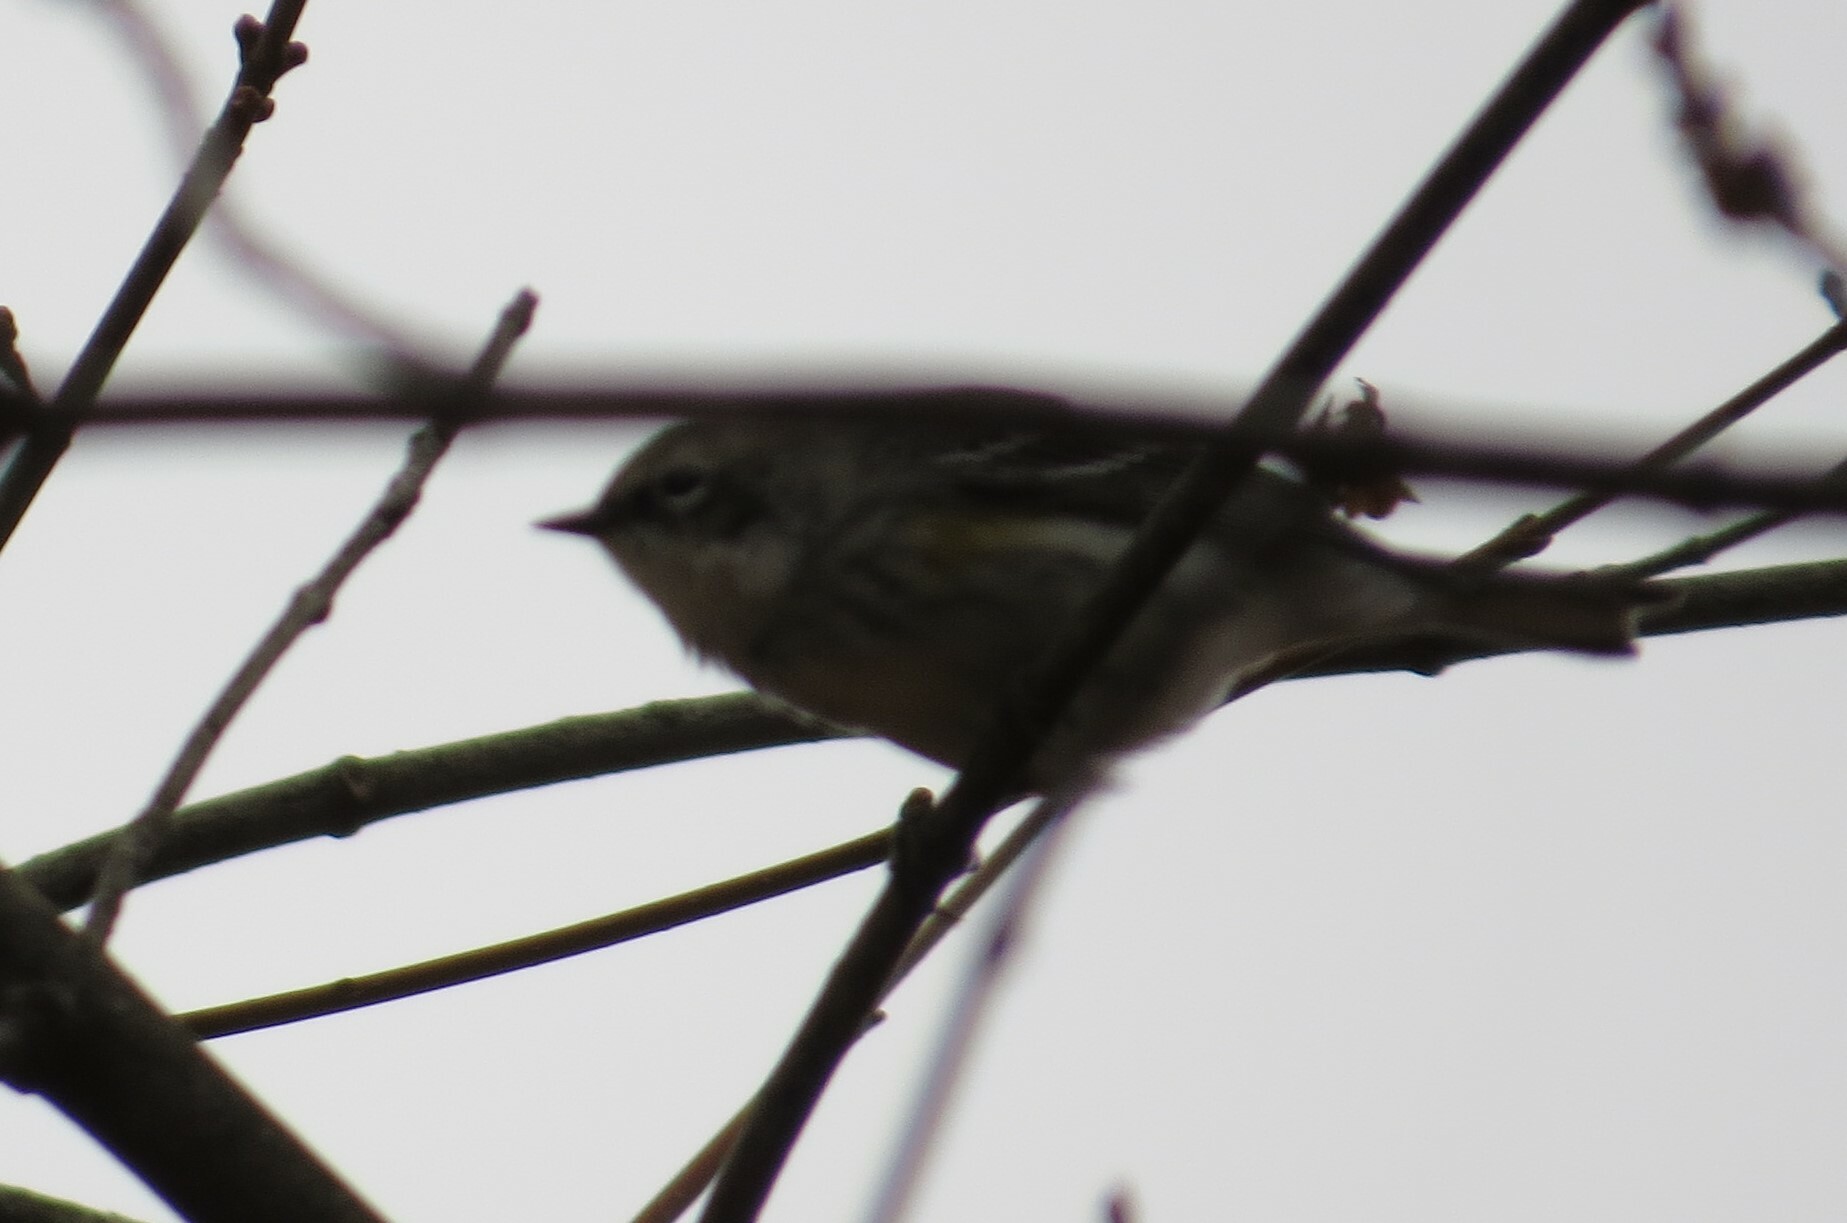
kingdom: Animalia
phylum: Chordata
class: Aves
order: Passeriformes
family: Parulidae
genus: Setophaga
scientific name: Setophaga coronata
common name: Myrtle warbler
